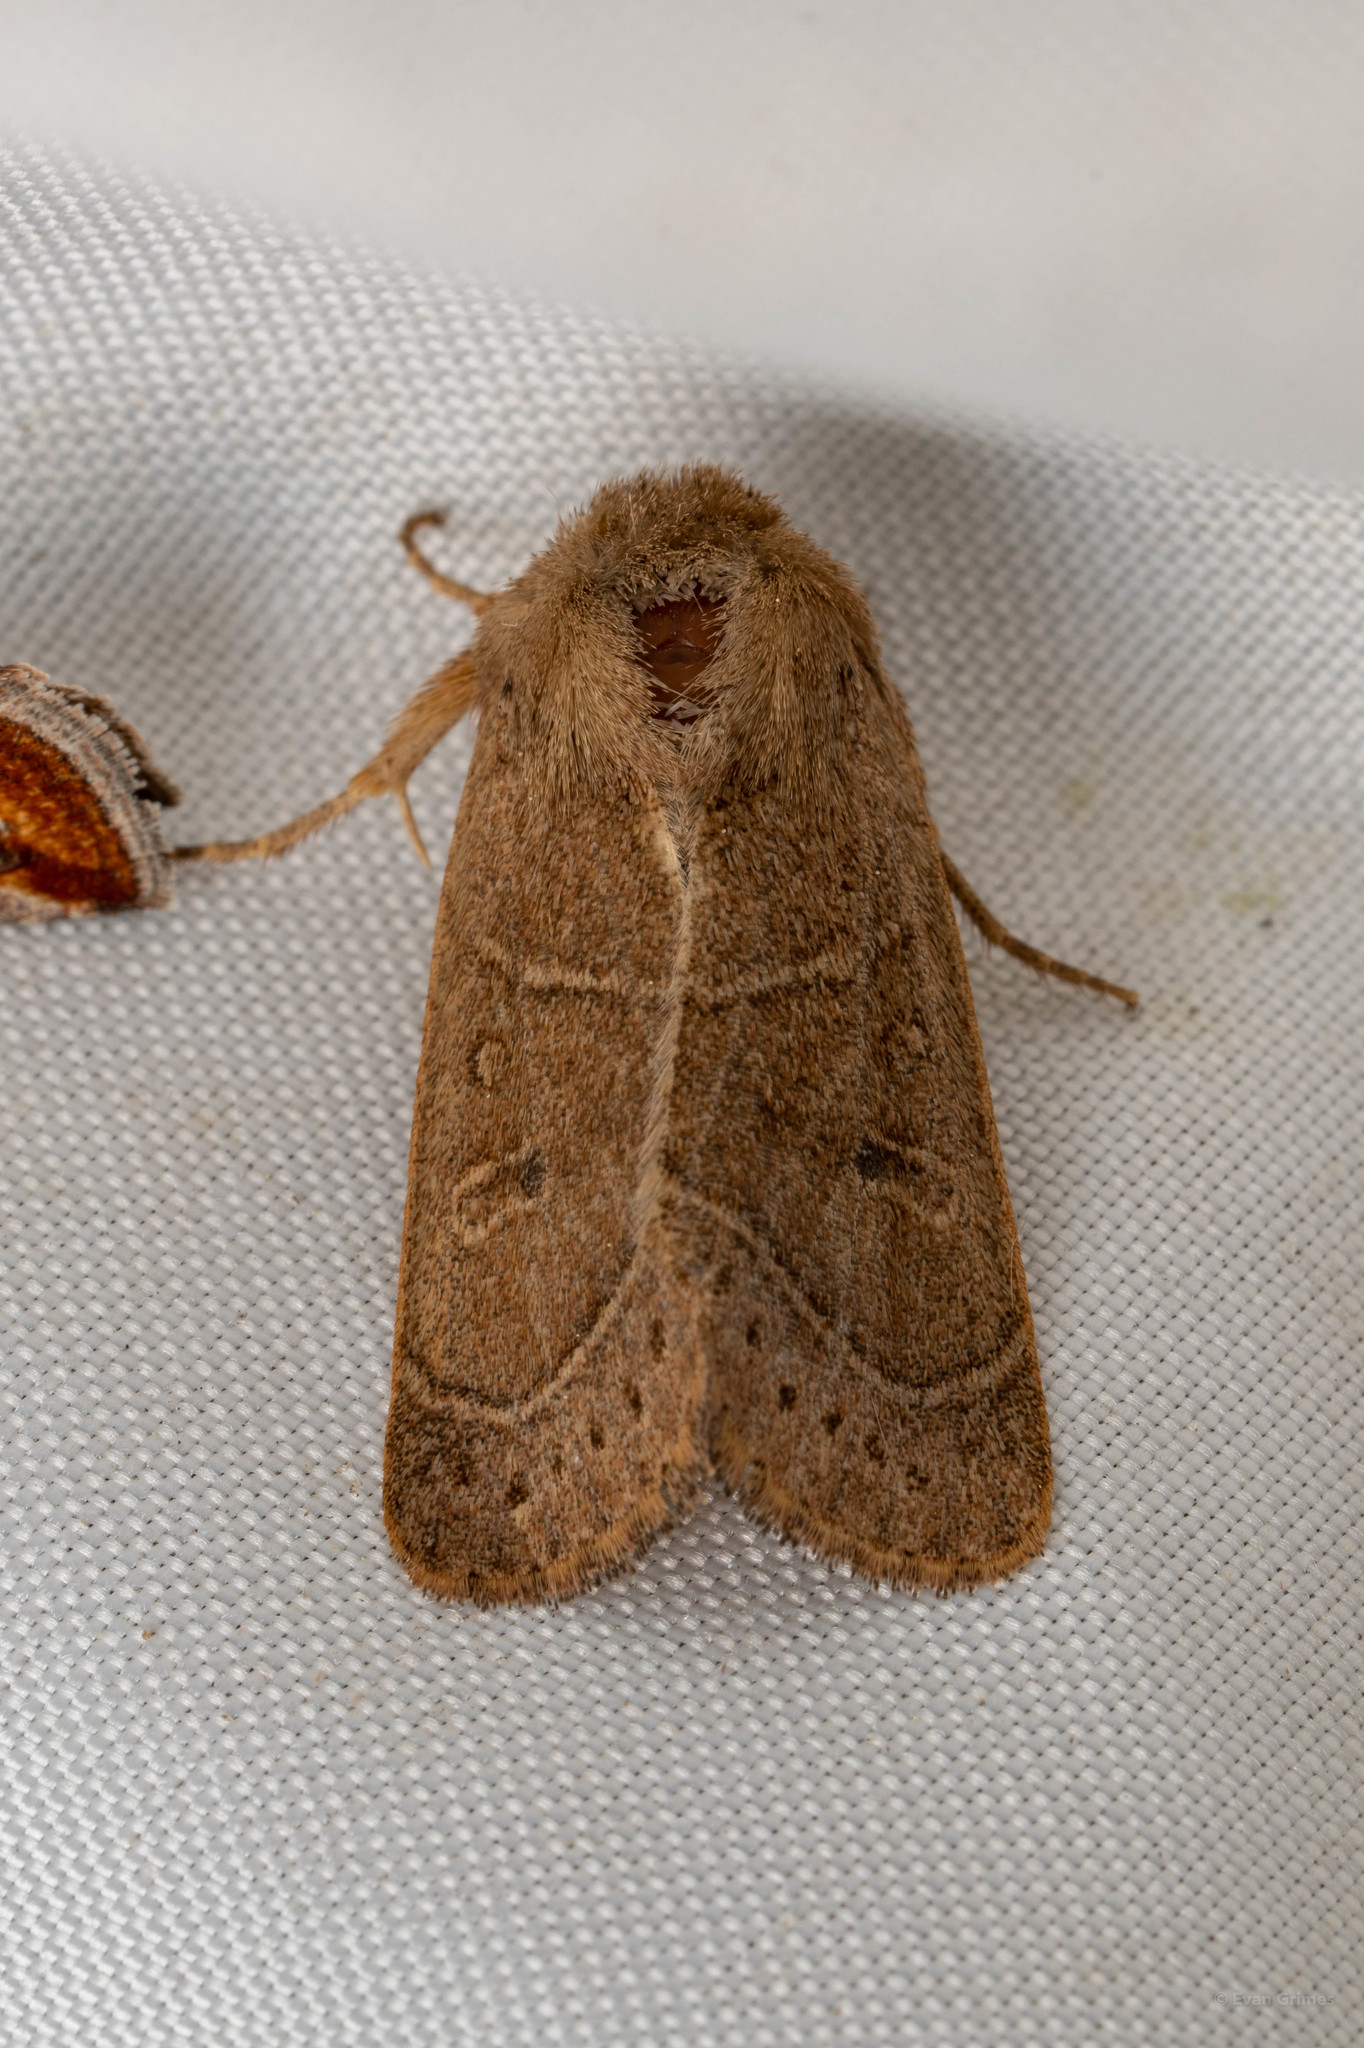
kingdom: Animalia
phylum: Arthropoda
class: Insecta
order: Lepidoptera
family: Noctuidae
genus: Ulolonche
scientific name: Ulolonche culea
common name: Sheathed quaker
